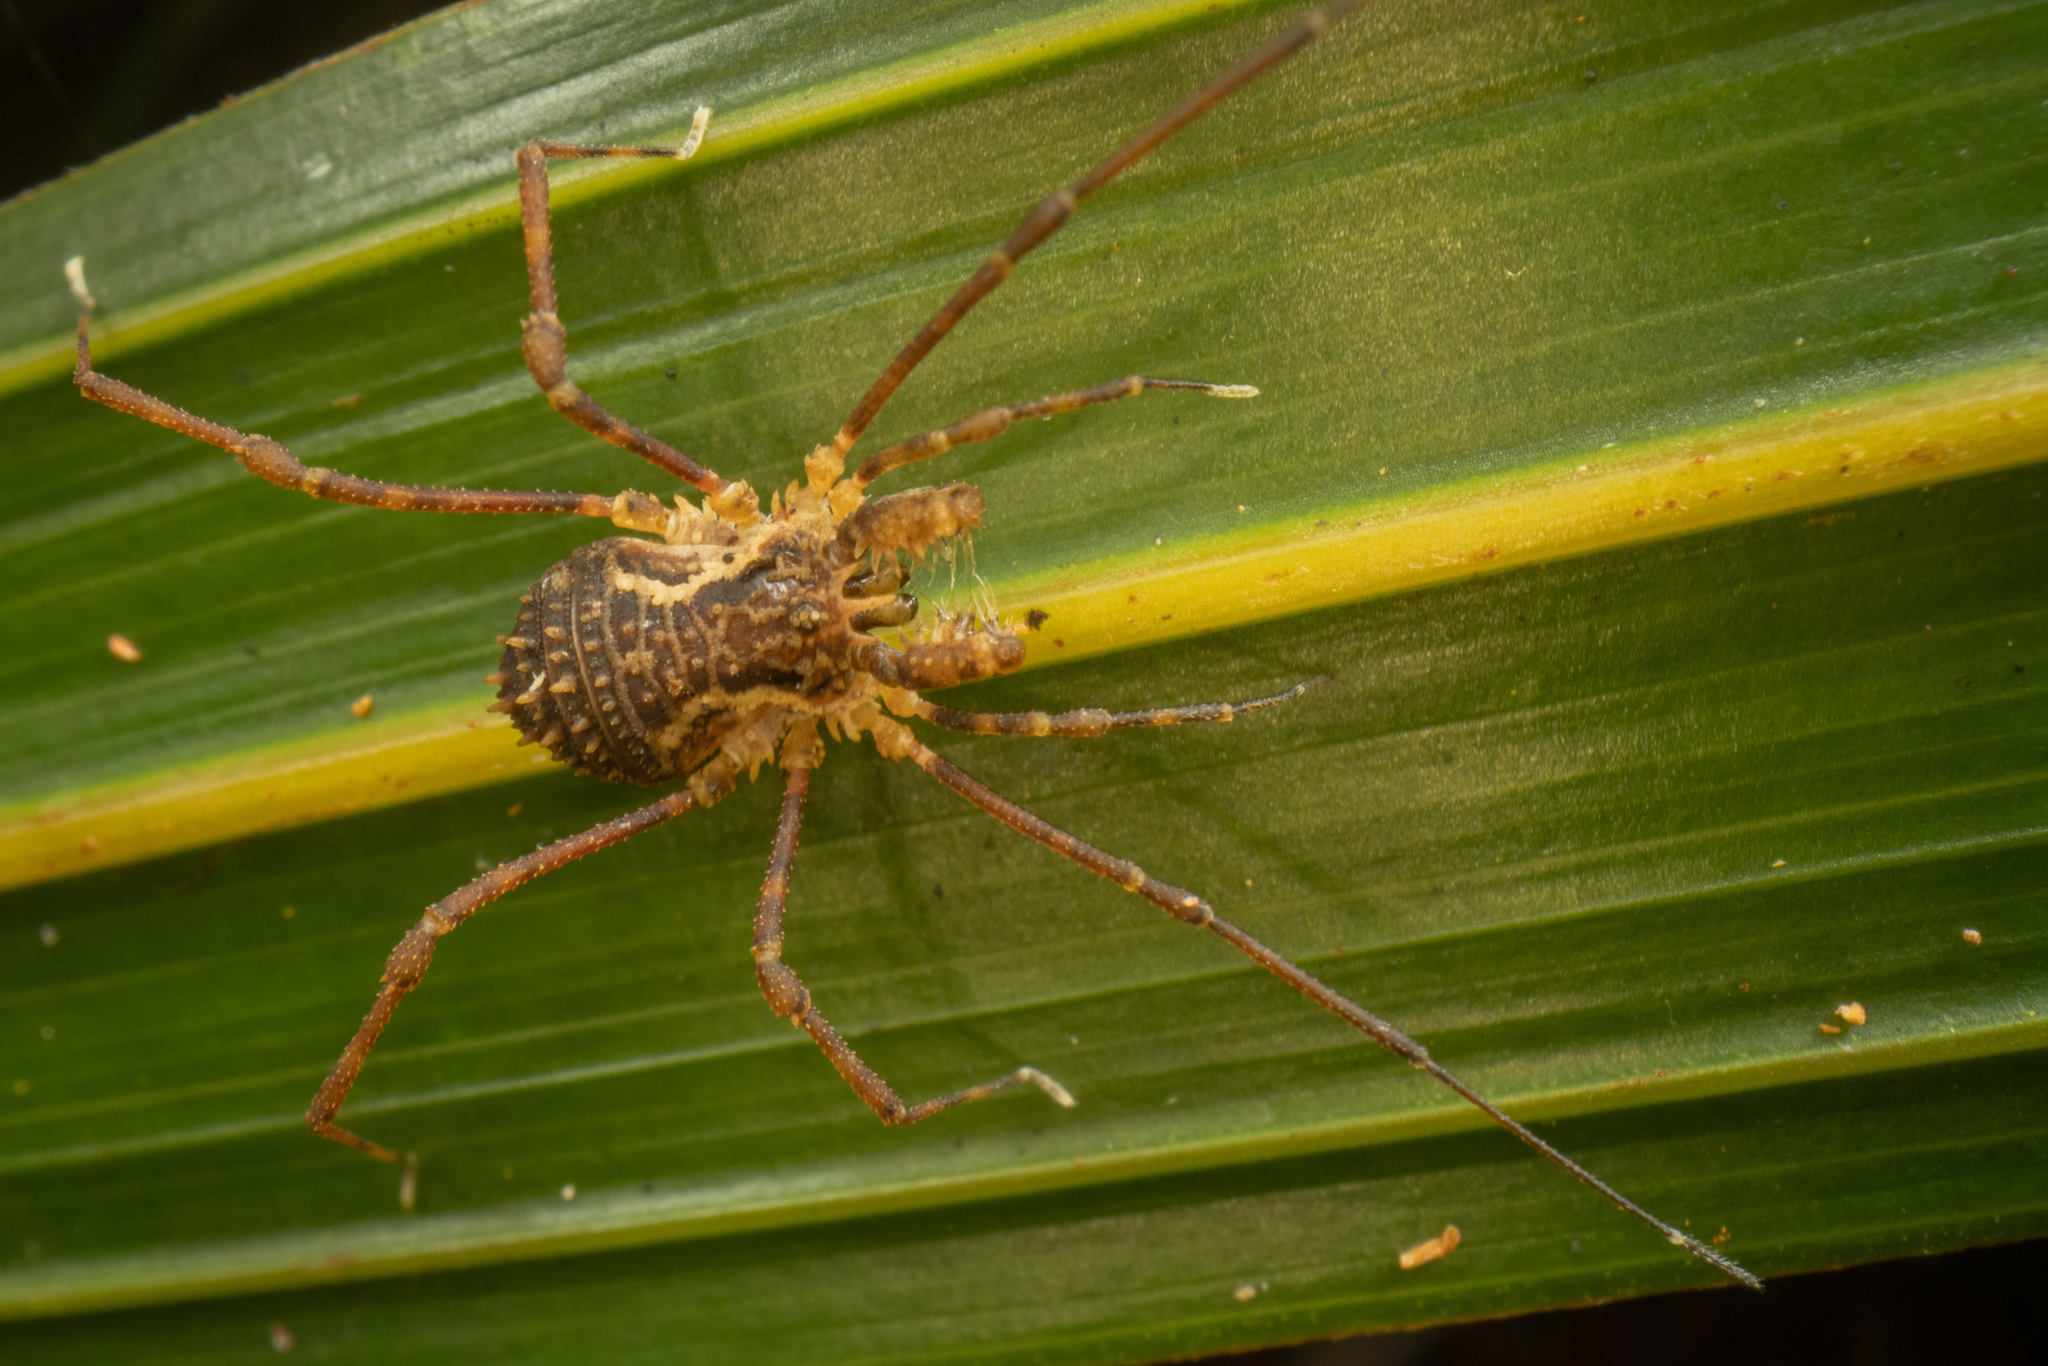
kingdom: Animalia
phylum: Arthropoda
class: Arachnida
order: Opiliones
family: Triaenonychidae
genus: Algidia
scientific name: Algidia chiltoni
